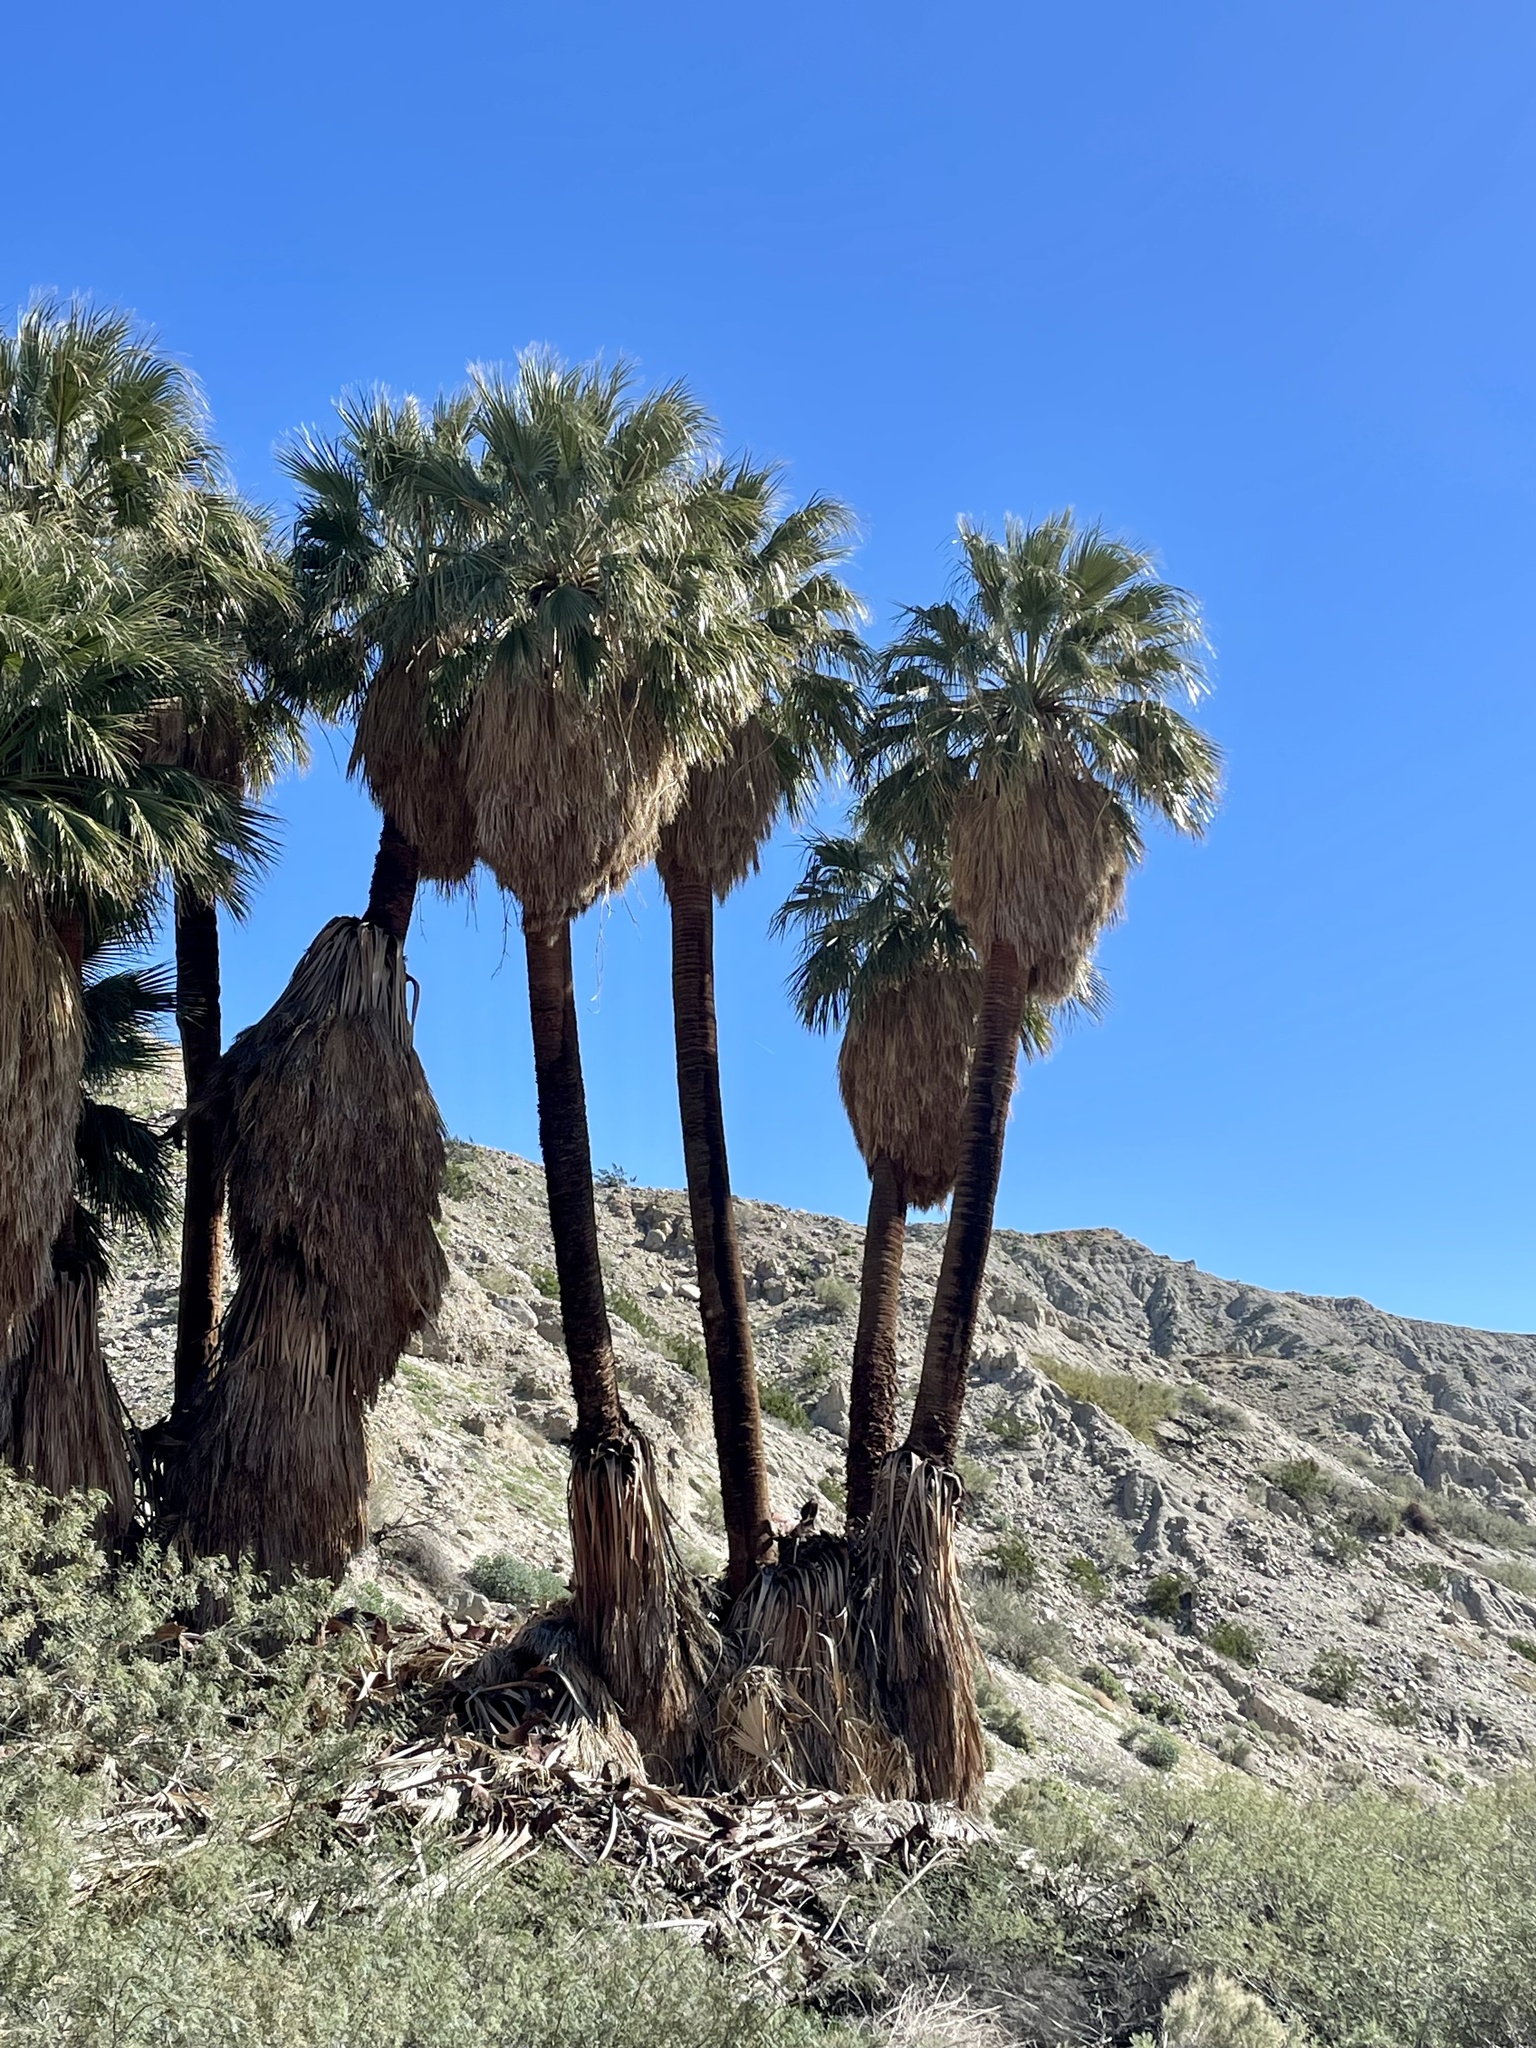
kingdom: Plantae
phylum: Tracheophyta
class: Liliopsida
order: Arecales
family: Arecaceae
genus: Washingtonia
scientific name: Washingtonia filifera
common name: California fan palm
